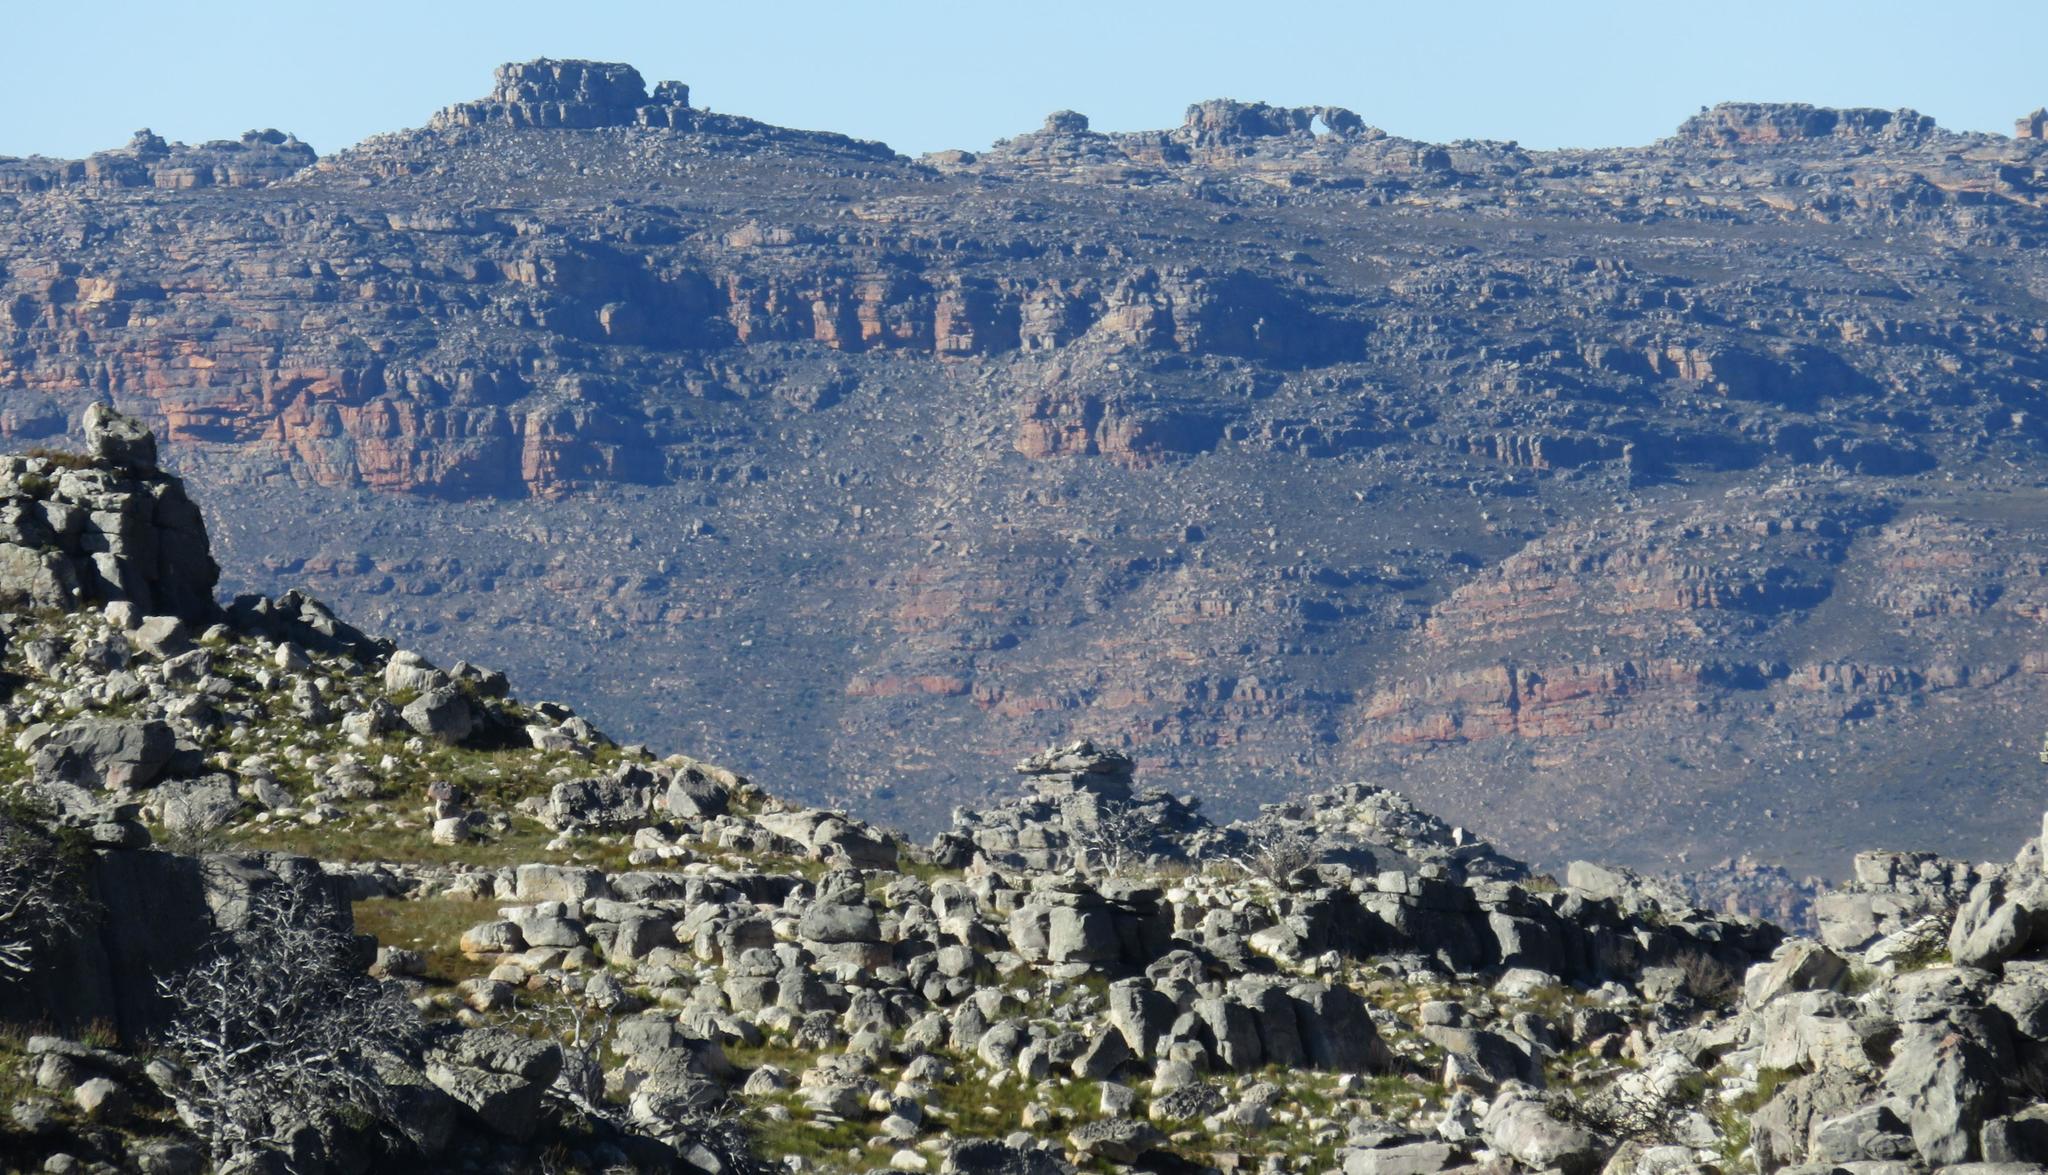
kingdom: Plantae
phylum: Tracheophyta
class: Pinopsida
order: Pinales
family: Cupressaceae
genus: Widdringtonia
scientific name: Widdringtonia nodiflora
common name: Cape cypress
